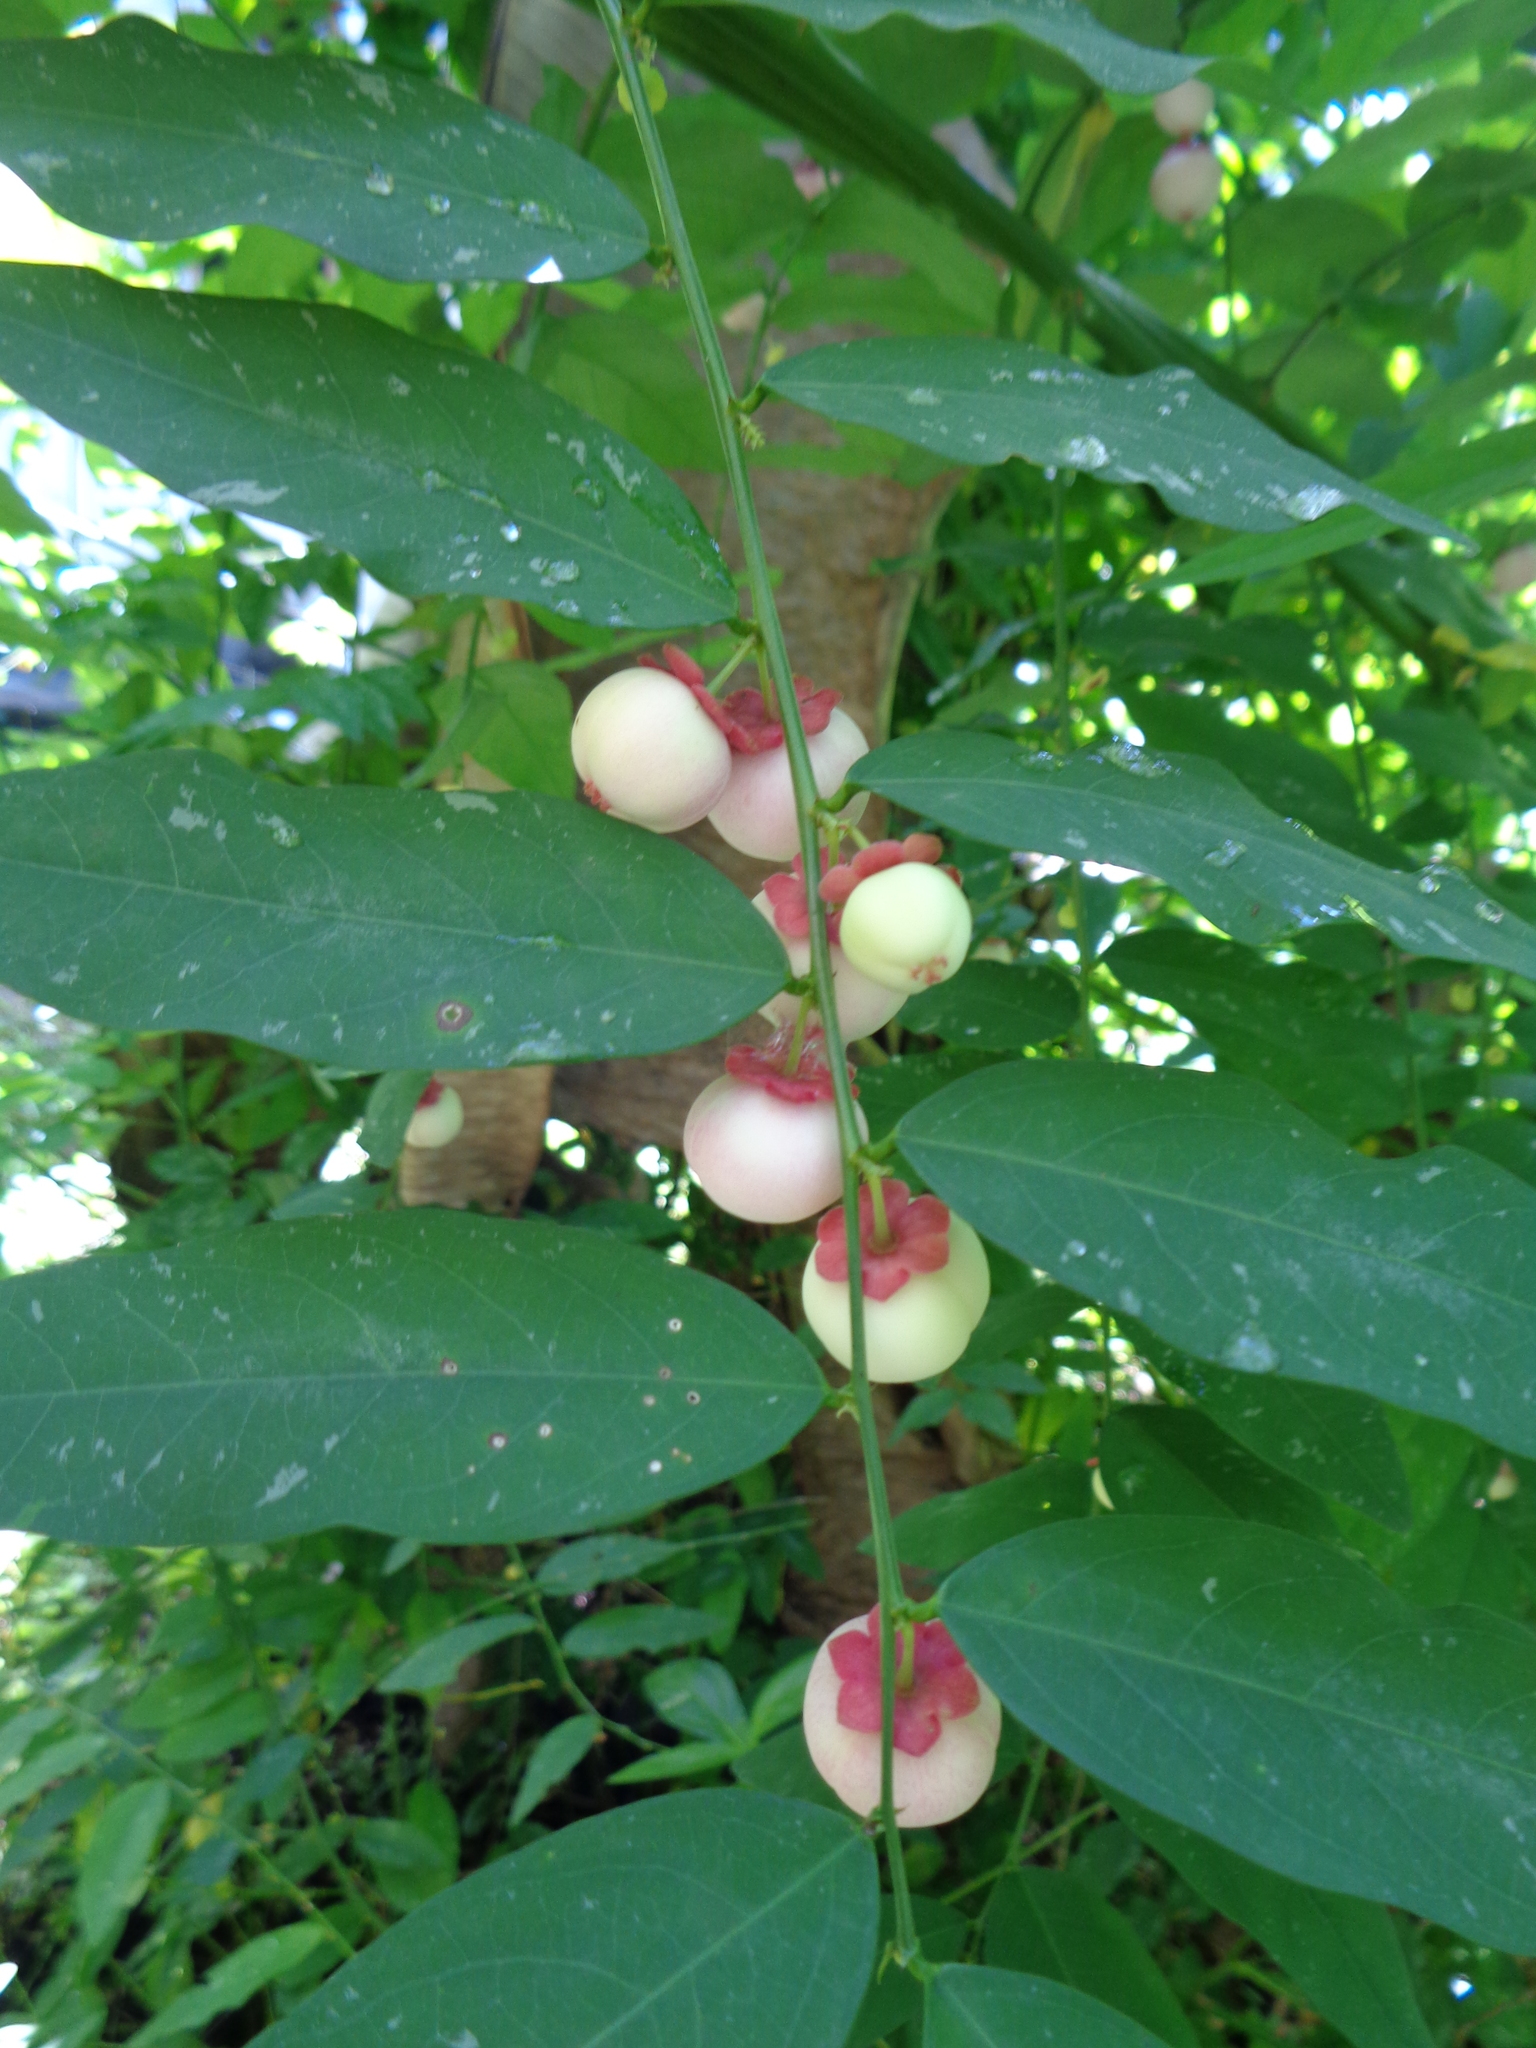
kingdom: Plantae
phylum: Tracheophyta
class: Magnoliopsida
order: Malpighiales
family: Phyllanthaceae
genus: Breynia
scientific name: Breynia androgyna
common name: Star gooseberry
